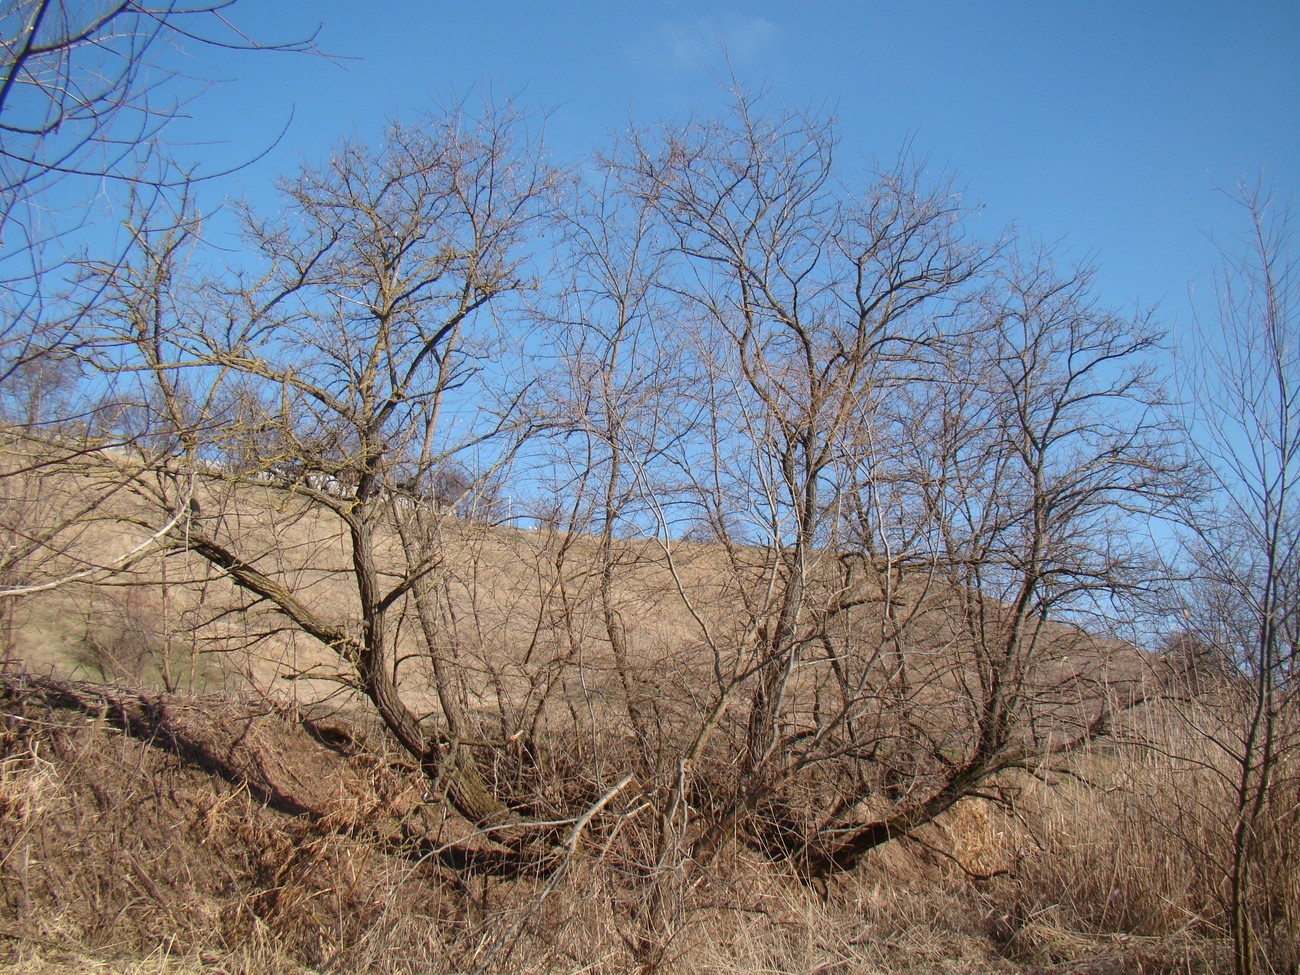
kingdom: Plantae
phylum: Tracheophyta
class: Magnoliopsida
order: Fabales
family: Fabaceae
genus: Robinia
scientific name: Robinia pseudoacacia
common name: Black locust
